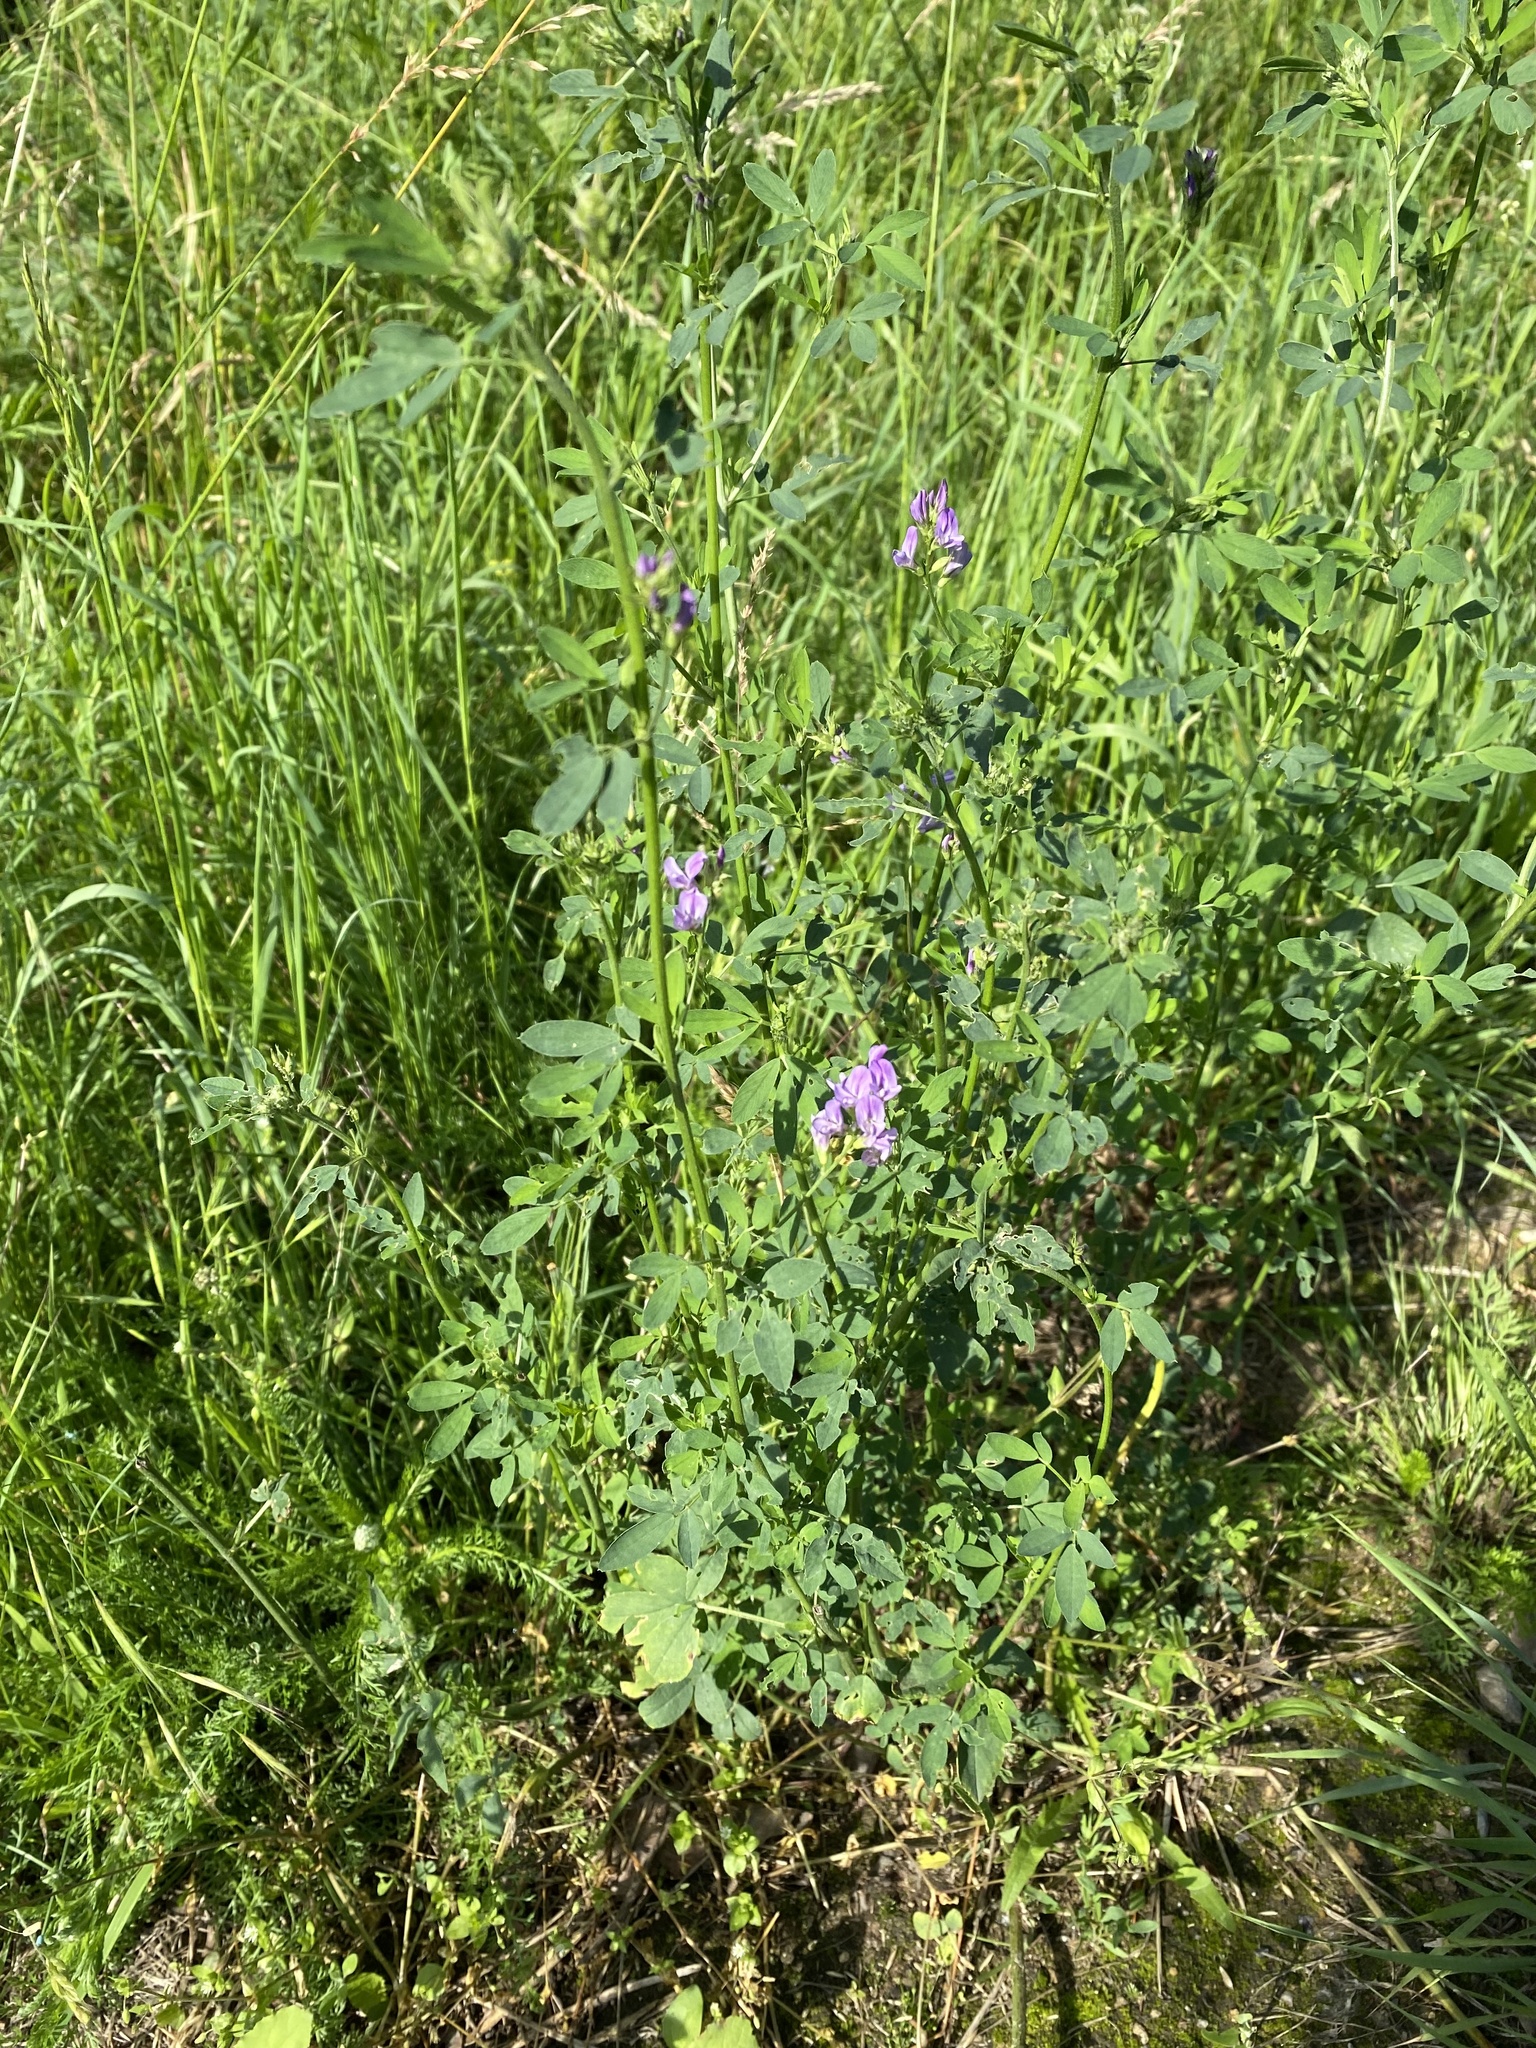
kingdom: Plantae
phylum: Tracheophyta
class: Magnoliopsida
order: Fabales
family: Fabaceae
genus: Medicago
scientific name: Medicago sativa
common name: Alfalfa
